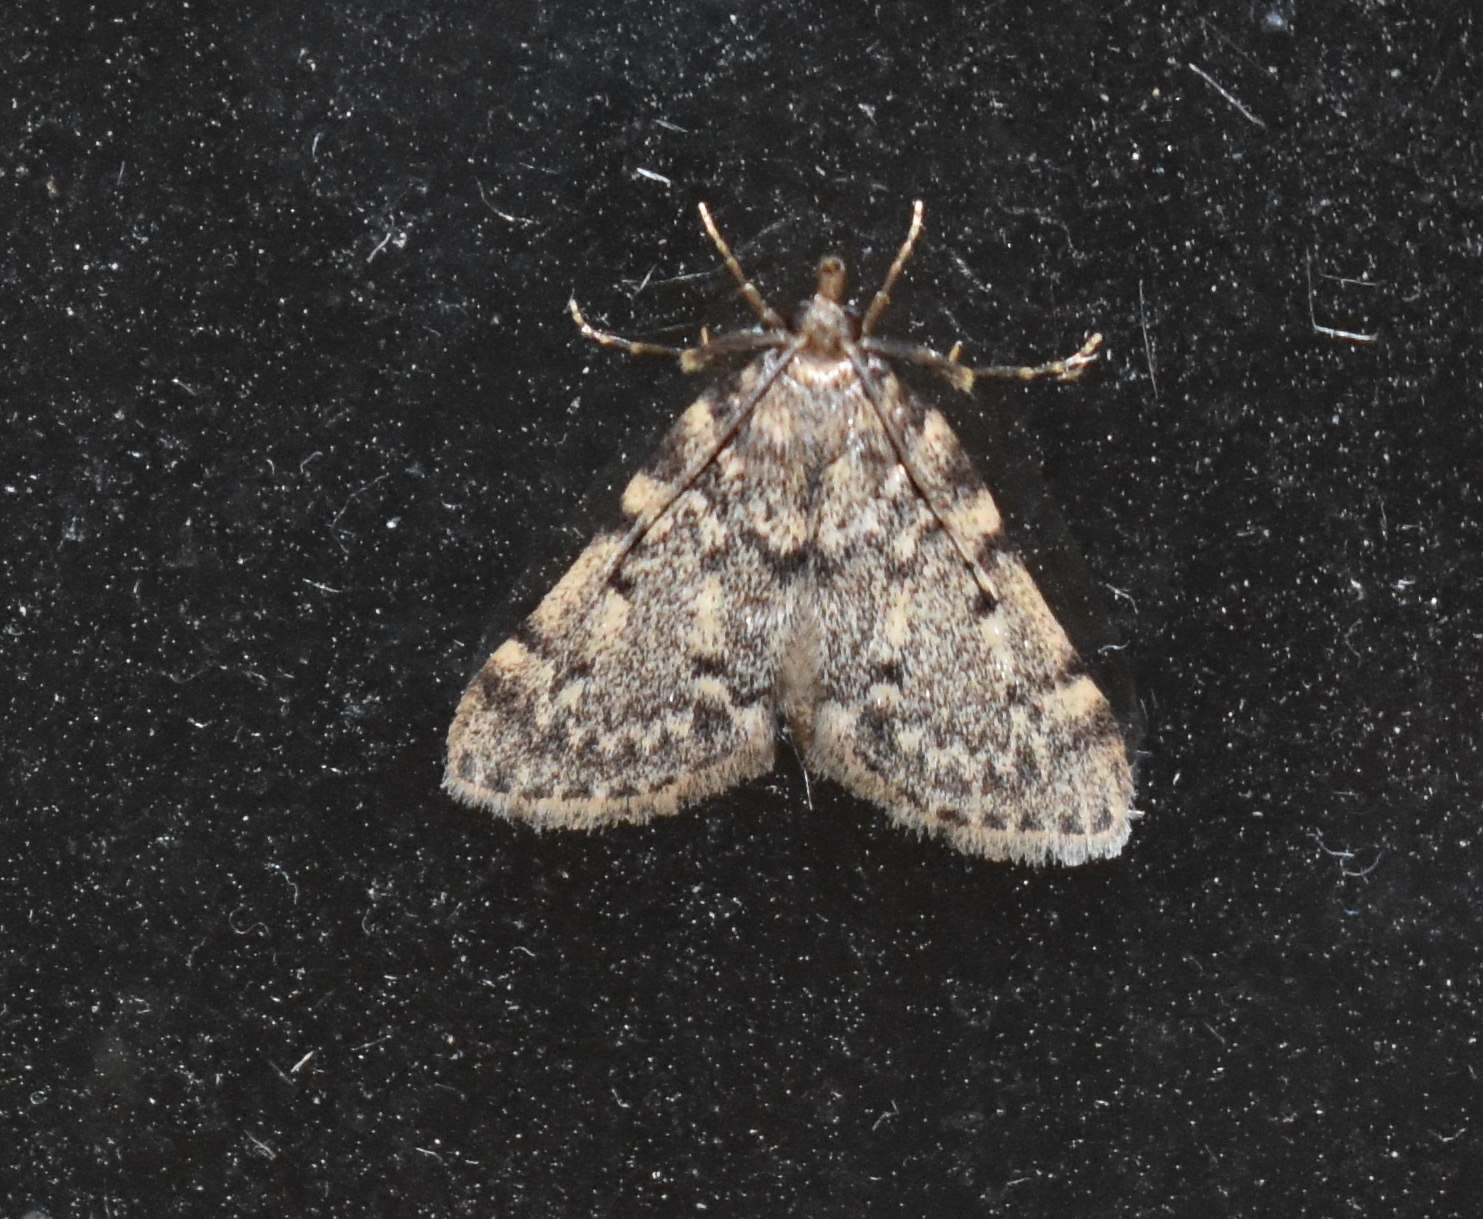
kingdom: Animalia
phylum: Arthropoda
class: Insecta
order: Lepidoptera
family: Pyralidae
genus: Aglossa
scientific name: Aglossa pinguinalis
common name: Large tabby
